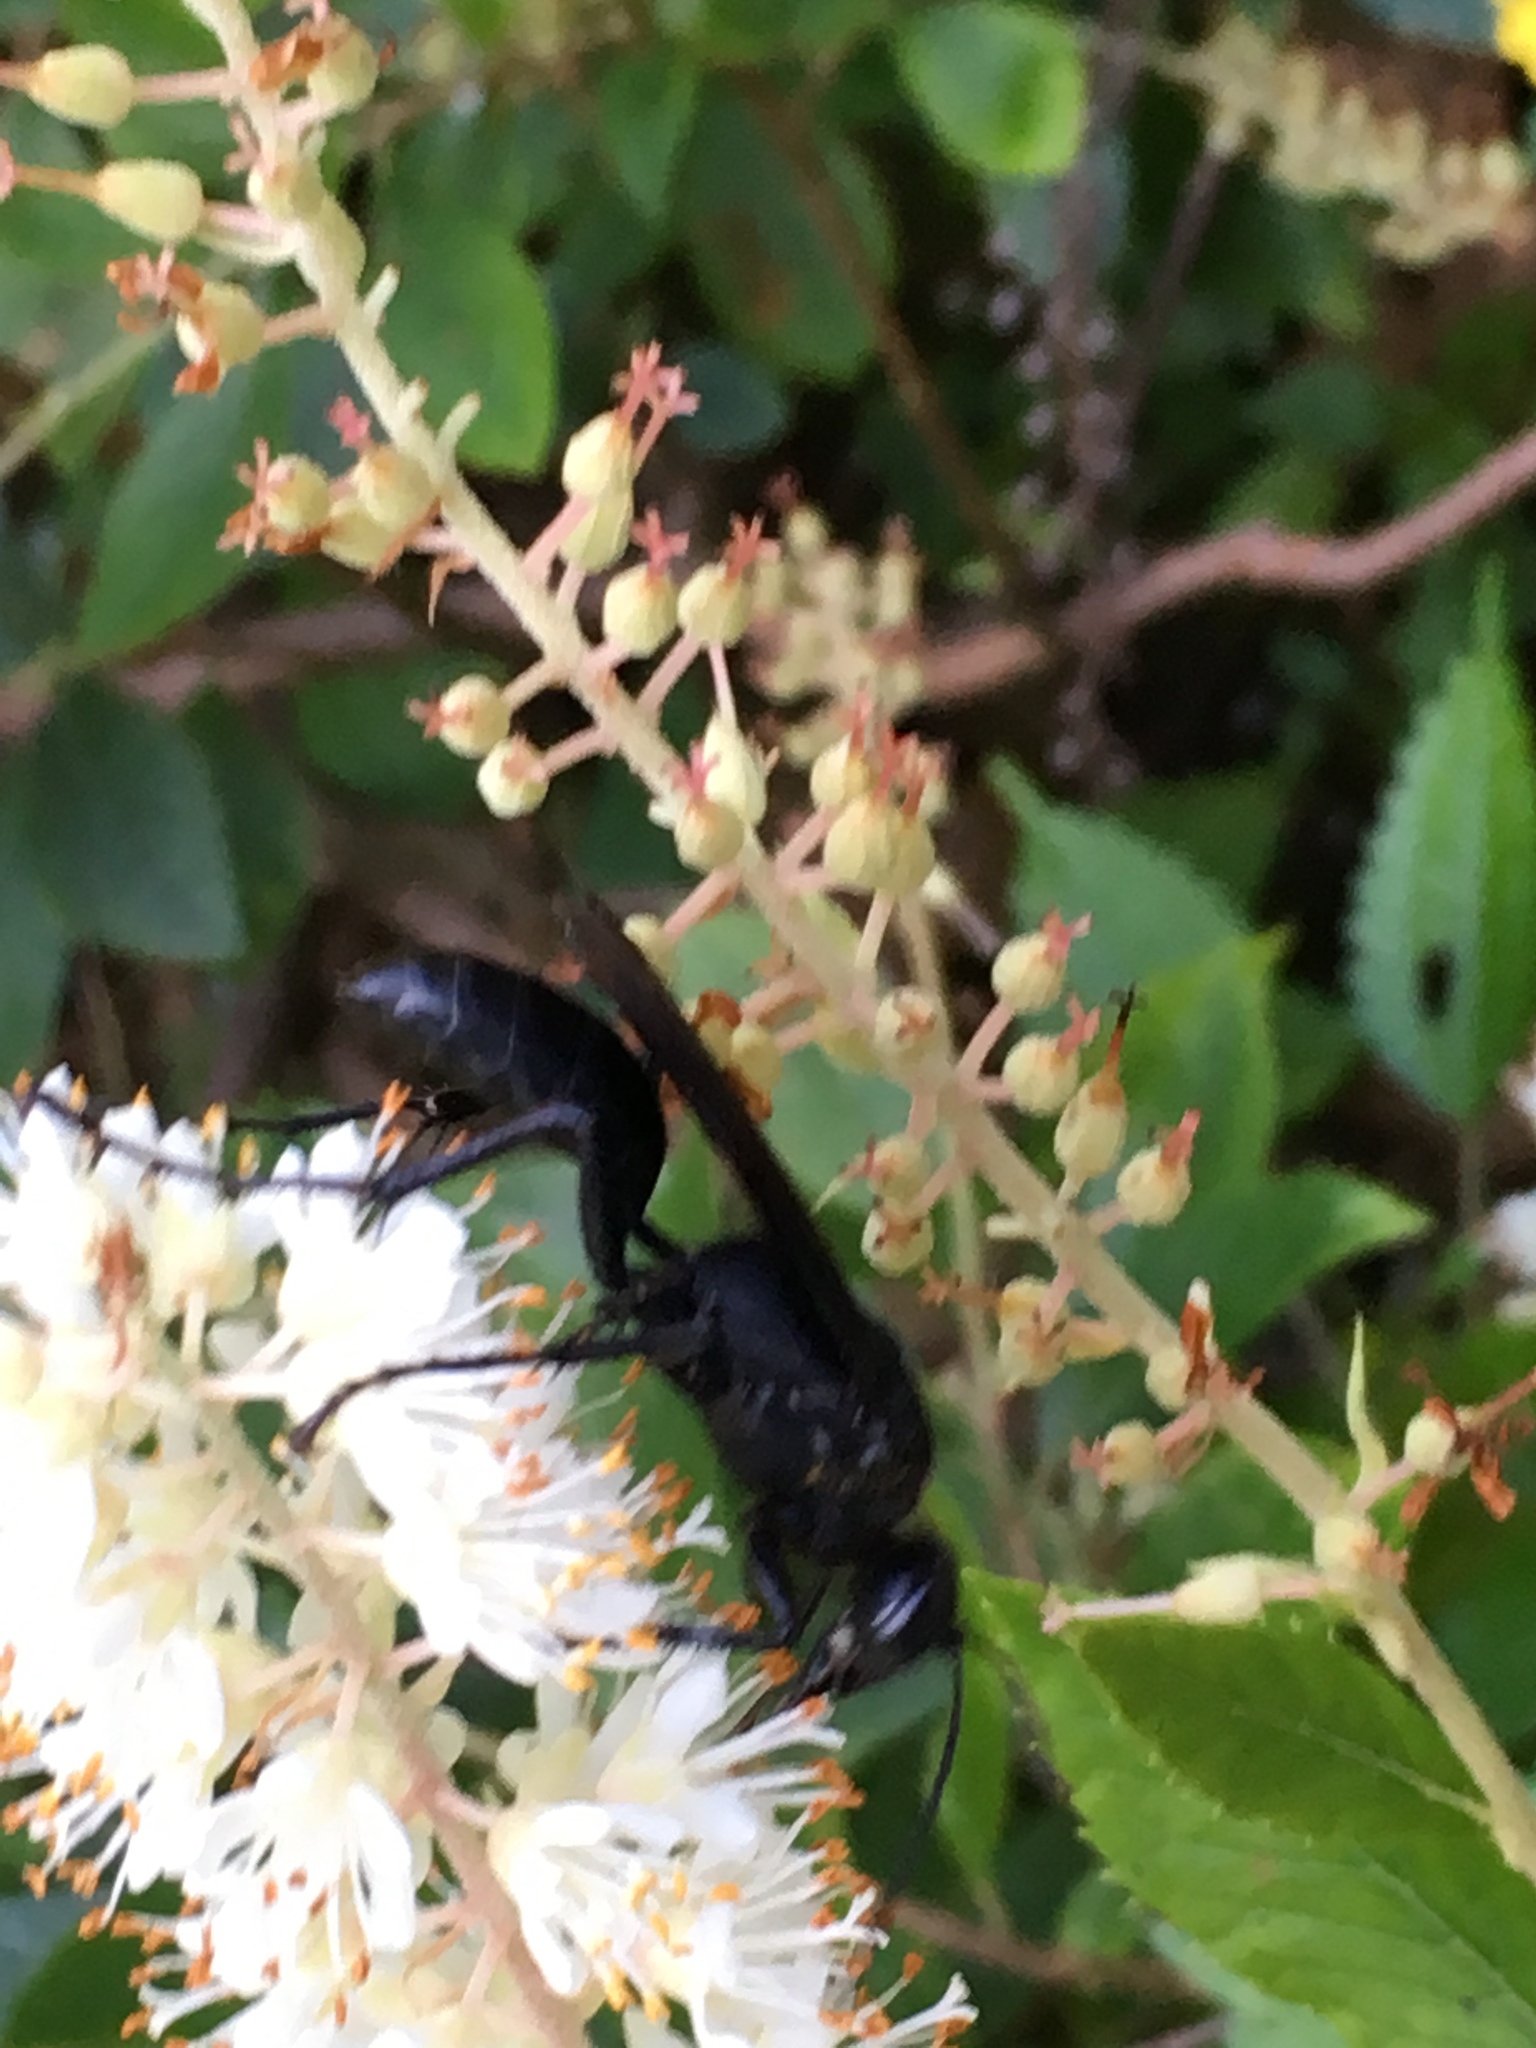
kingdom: Animalia
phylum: Arthropoda
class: Insecta
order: Hymenoptera
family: Sphecidae
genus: Sphex
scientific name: Sphex pensylvanicus
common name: Great black digger wasp
